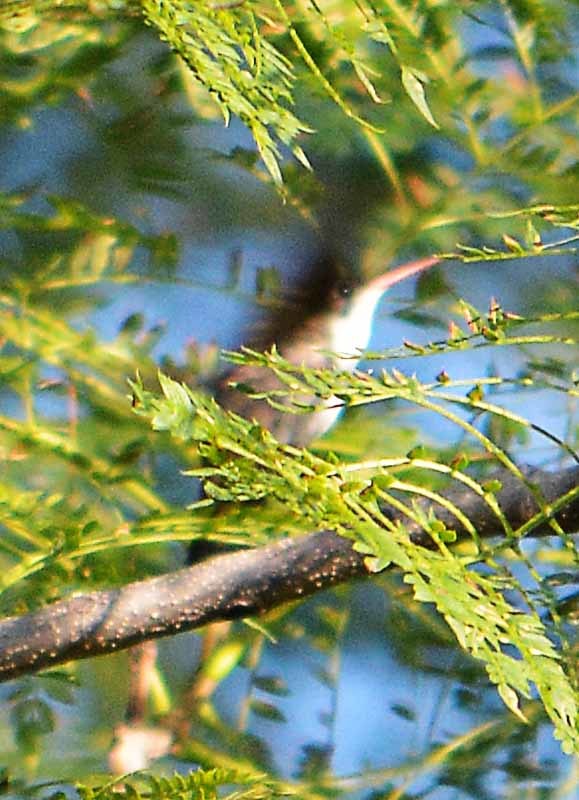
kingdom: Animalia
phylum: Chordata
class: Aves
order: Apodiformes
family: Trochilidae
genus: Leucolia
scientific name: Leucolia violiceps
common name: Violet-crowned hummingbird
